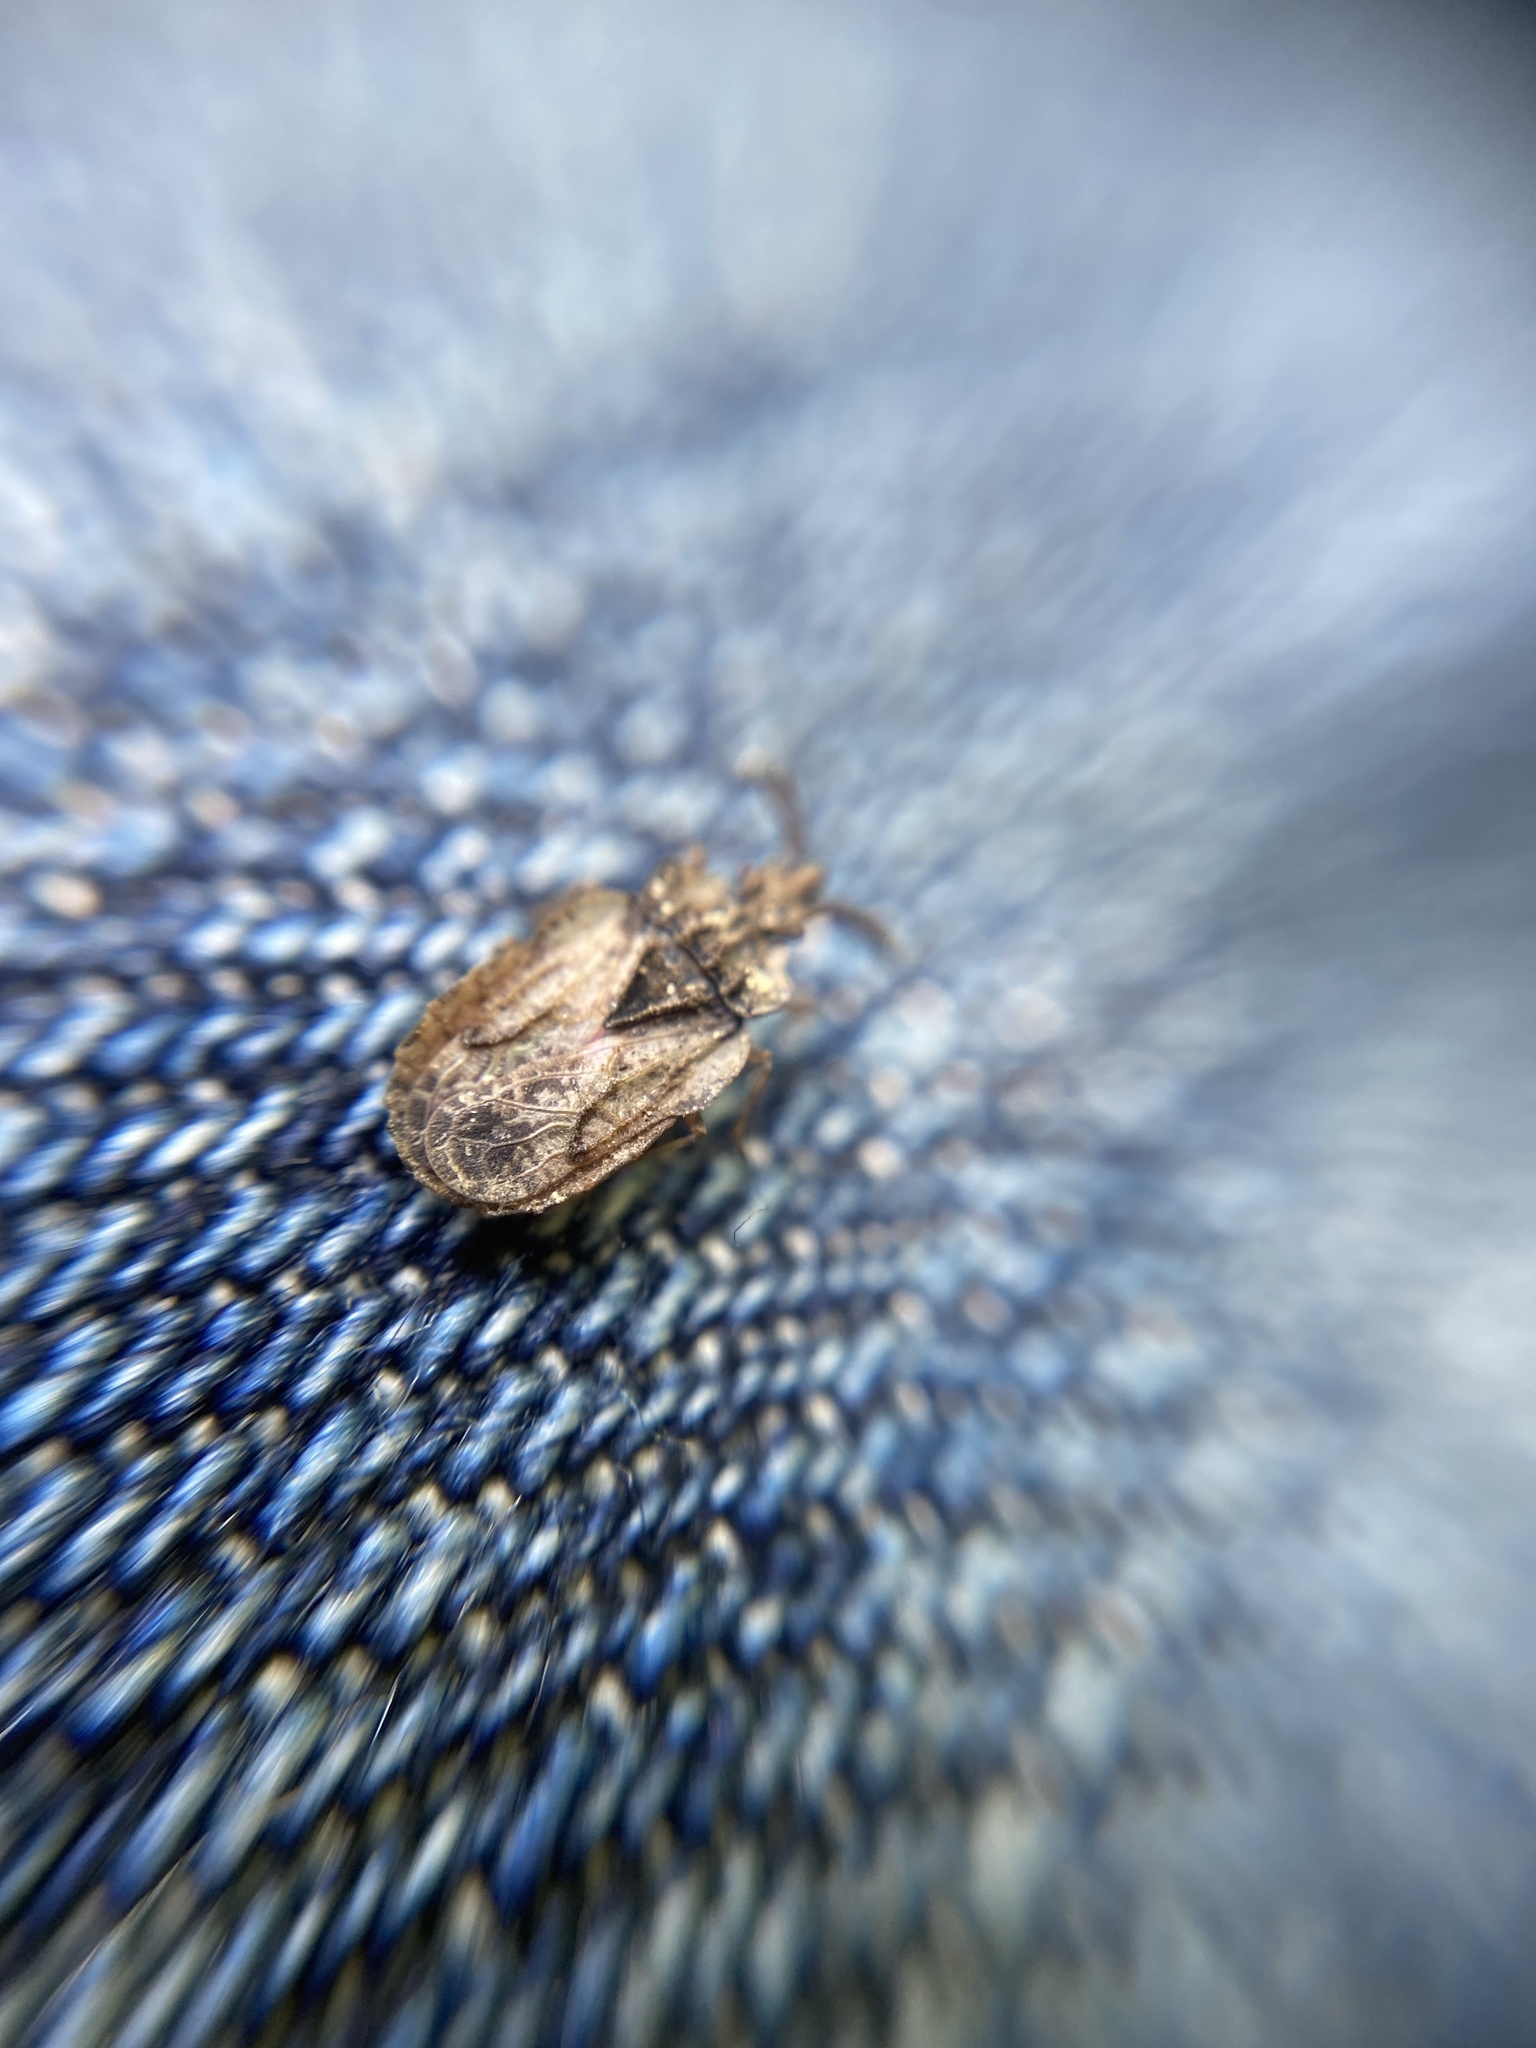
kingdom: Animalia
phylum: Arthropoda
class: Insecta
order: Hemiptera
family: Aradidae
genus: Aradus
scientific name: Aradus depressus
